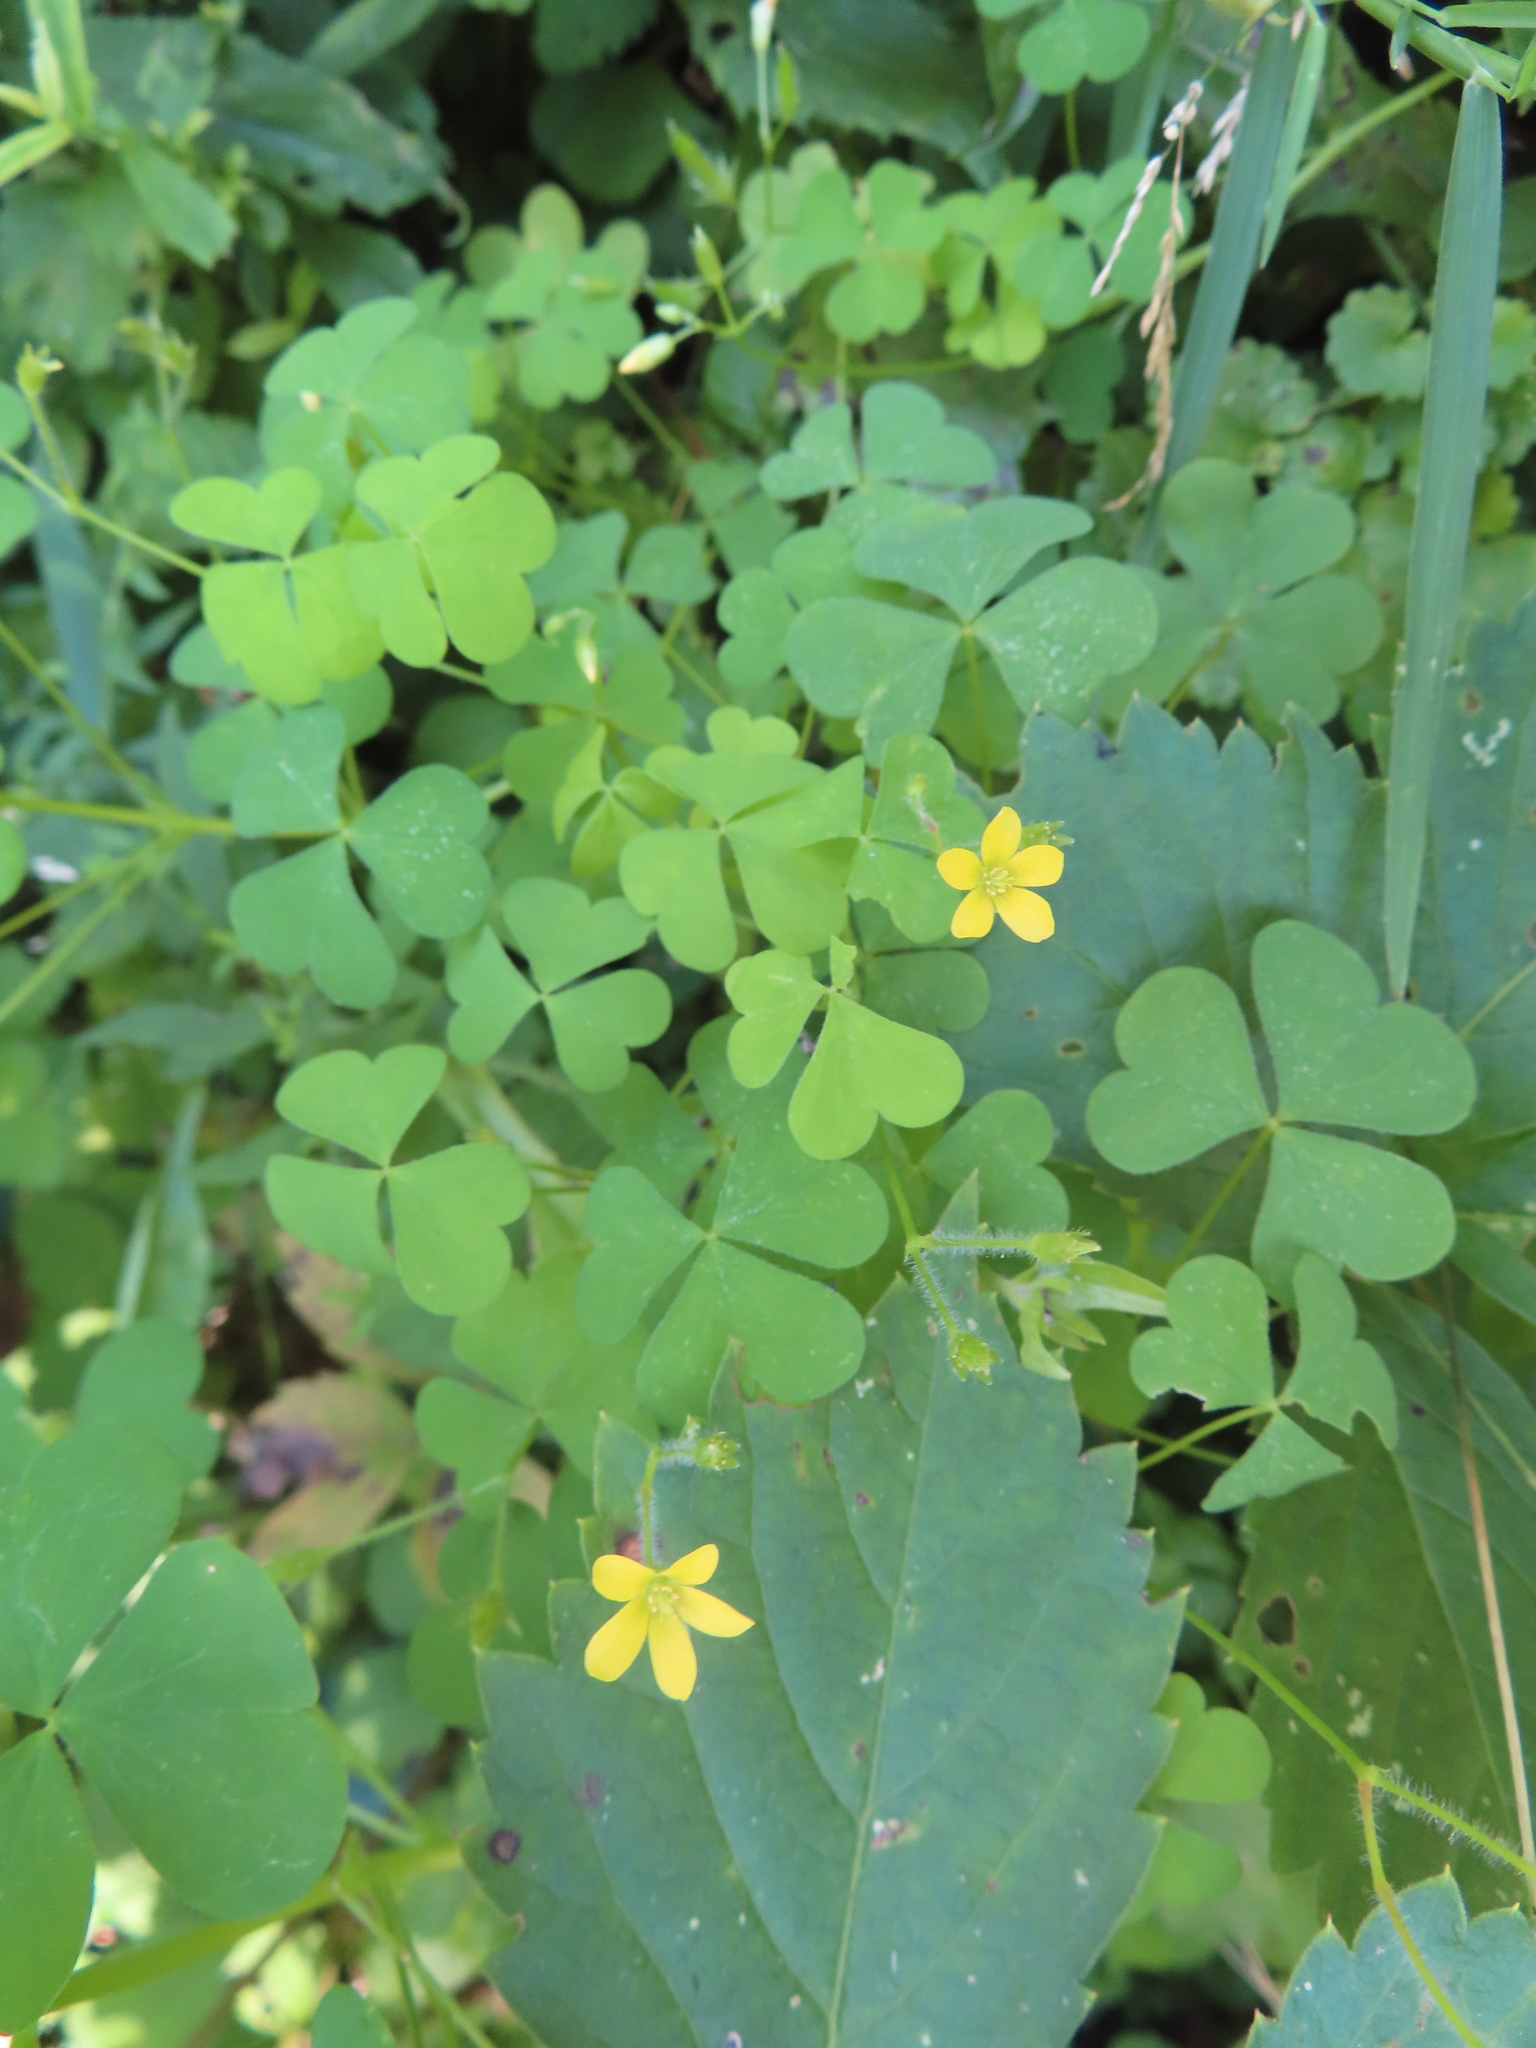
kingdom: Plantae
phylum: Tracheophyta
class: Magnoliopsida
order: Oxalidales
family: Oxalidaceae
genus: Oxalis
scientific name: Oxalis stricta
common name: Upright yellow-sorrel
